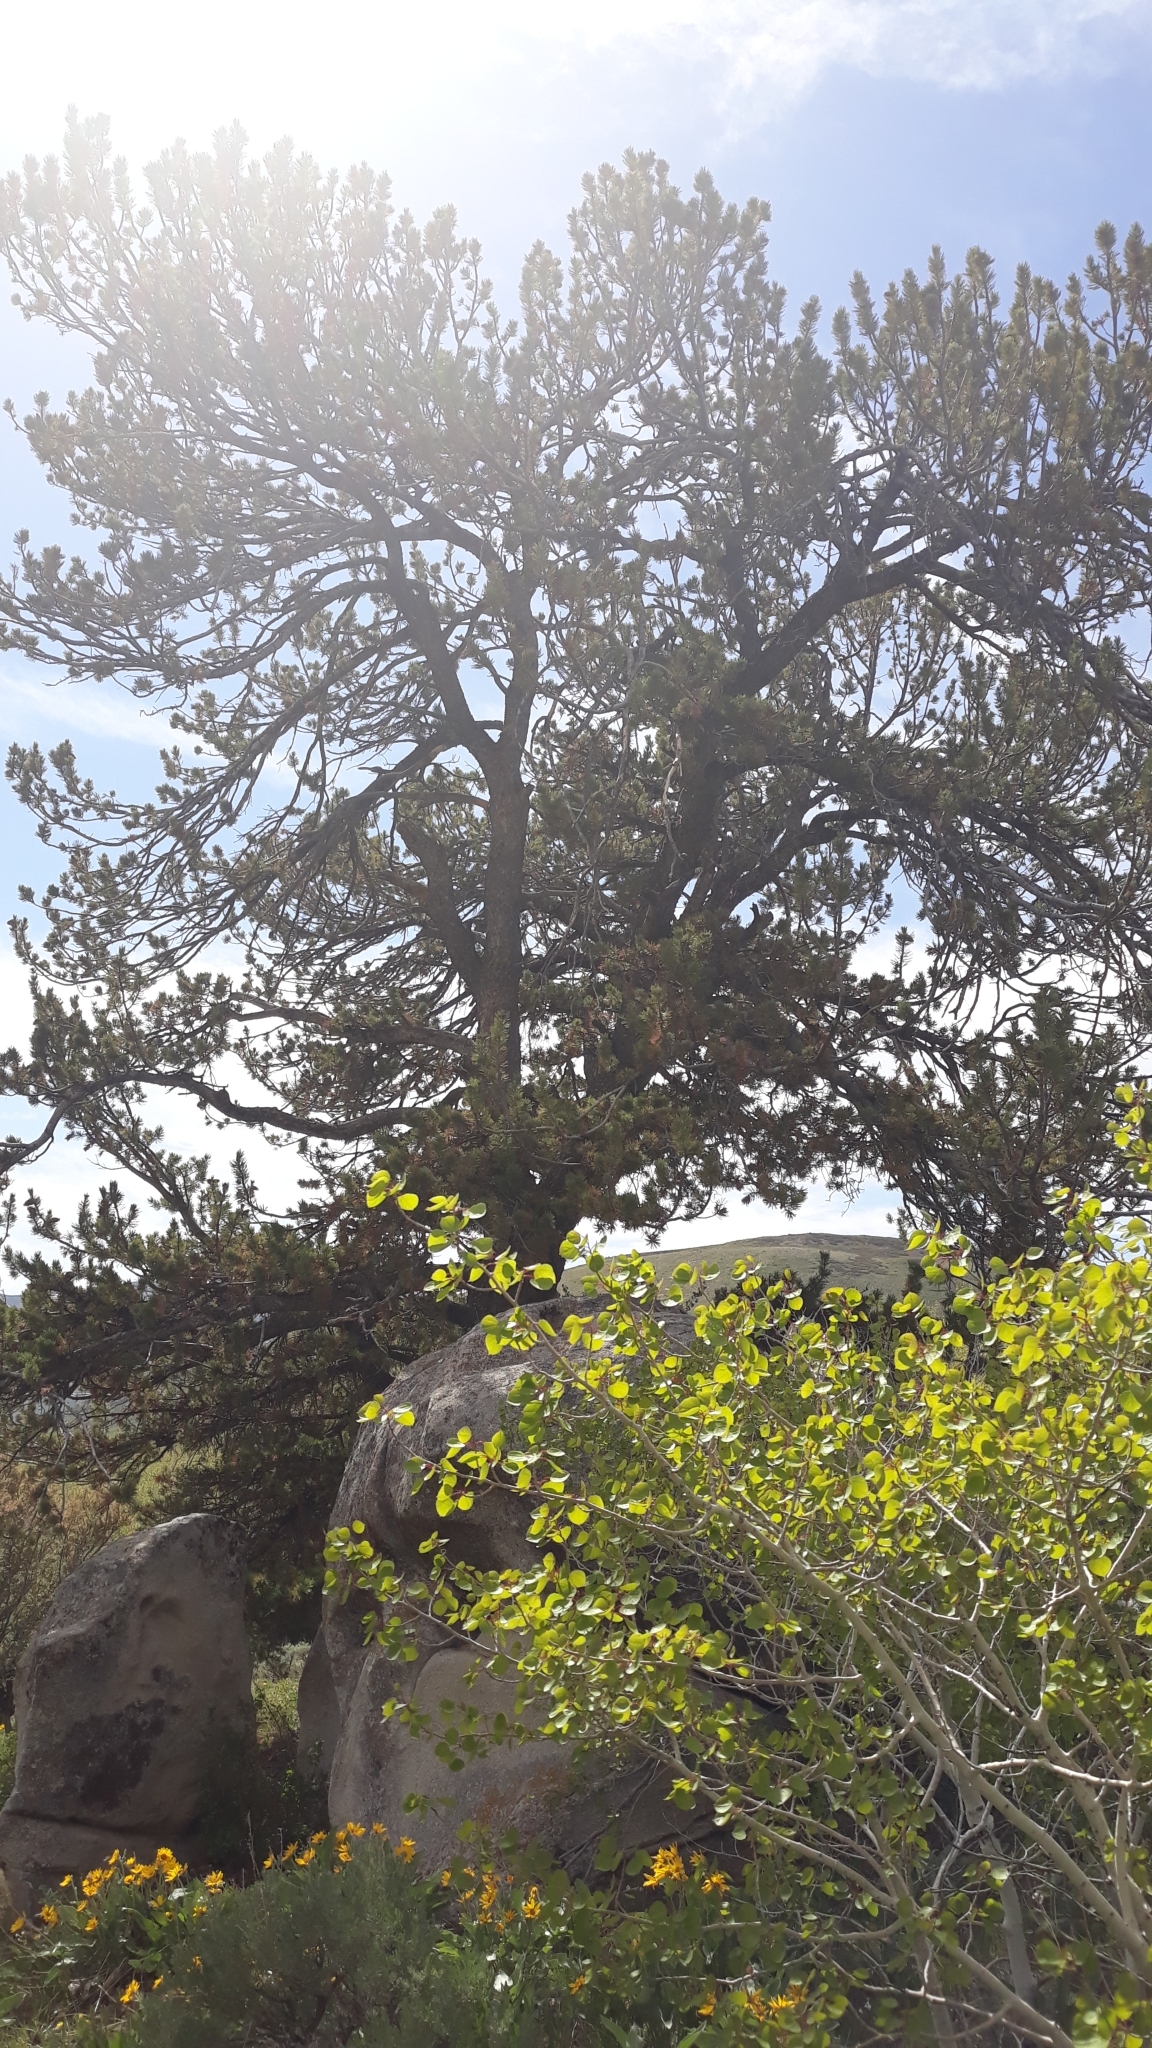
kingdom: Plantae
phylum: Tracheophyta
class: Pinopsida
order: Pinales
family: Pinaceae
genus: Pinus
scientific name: Pinus flexilis
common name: Limber pine
